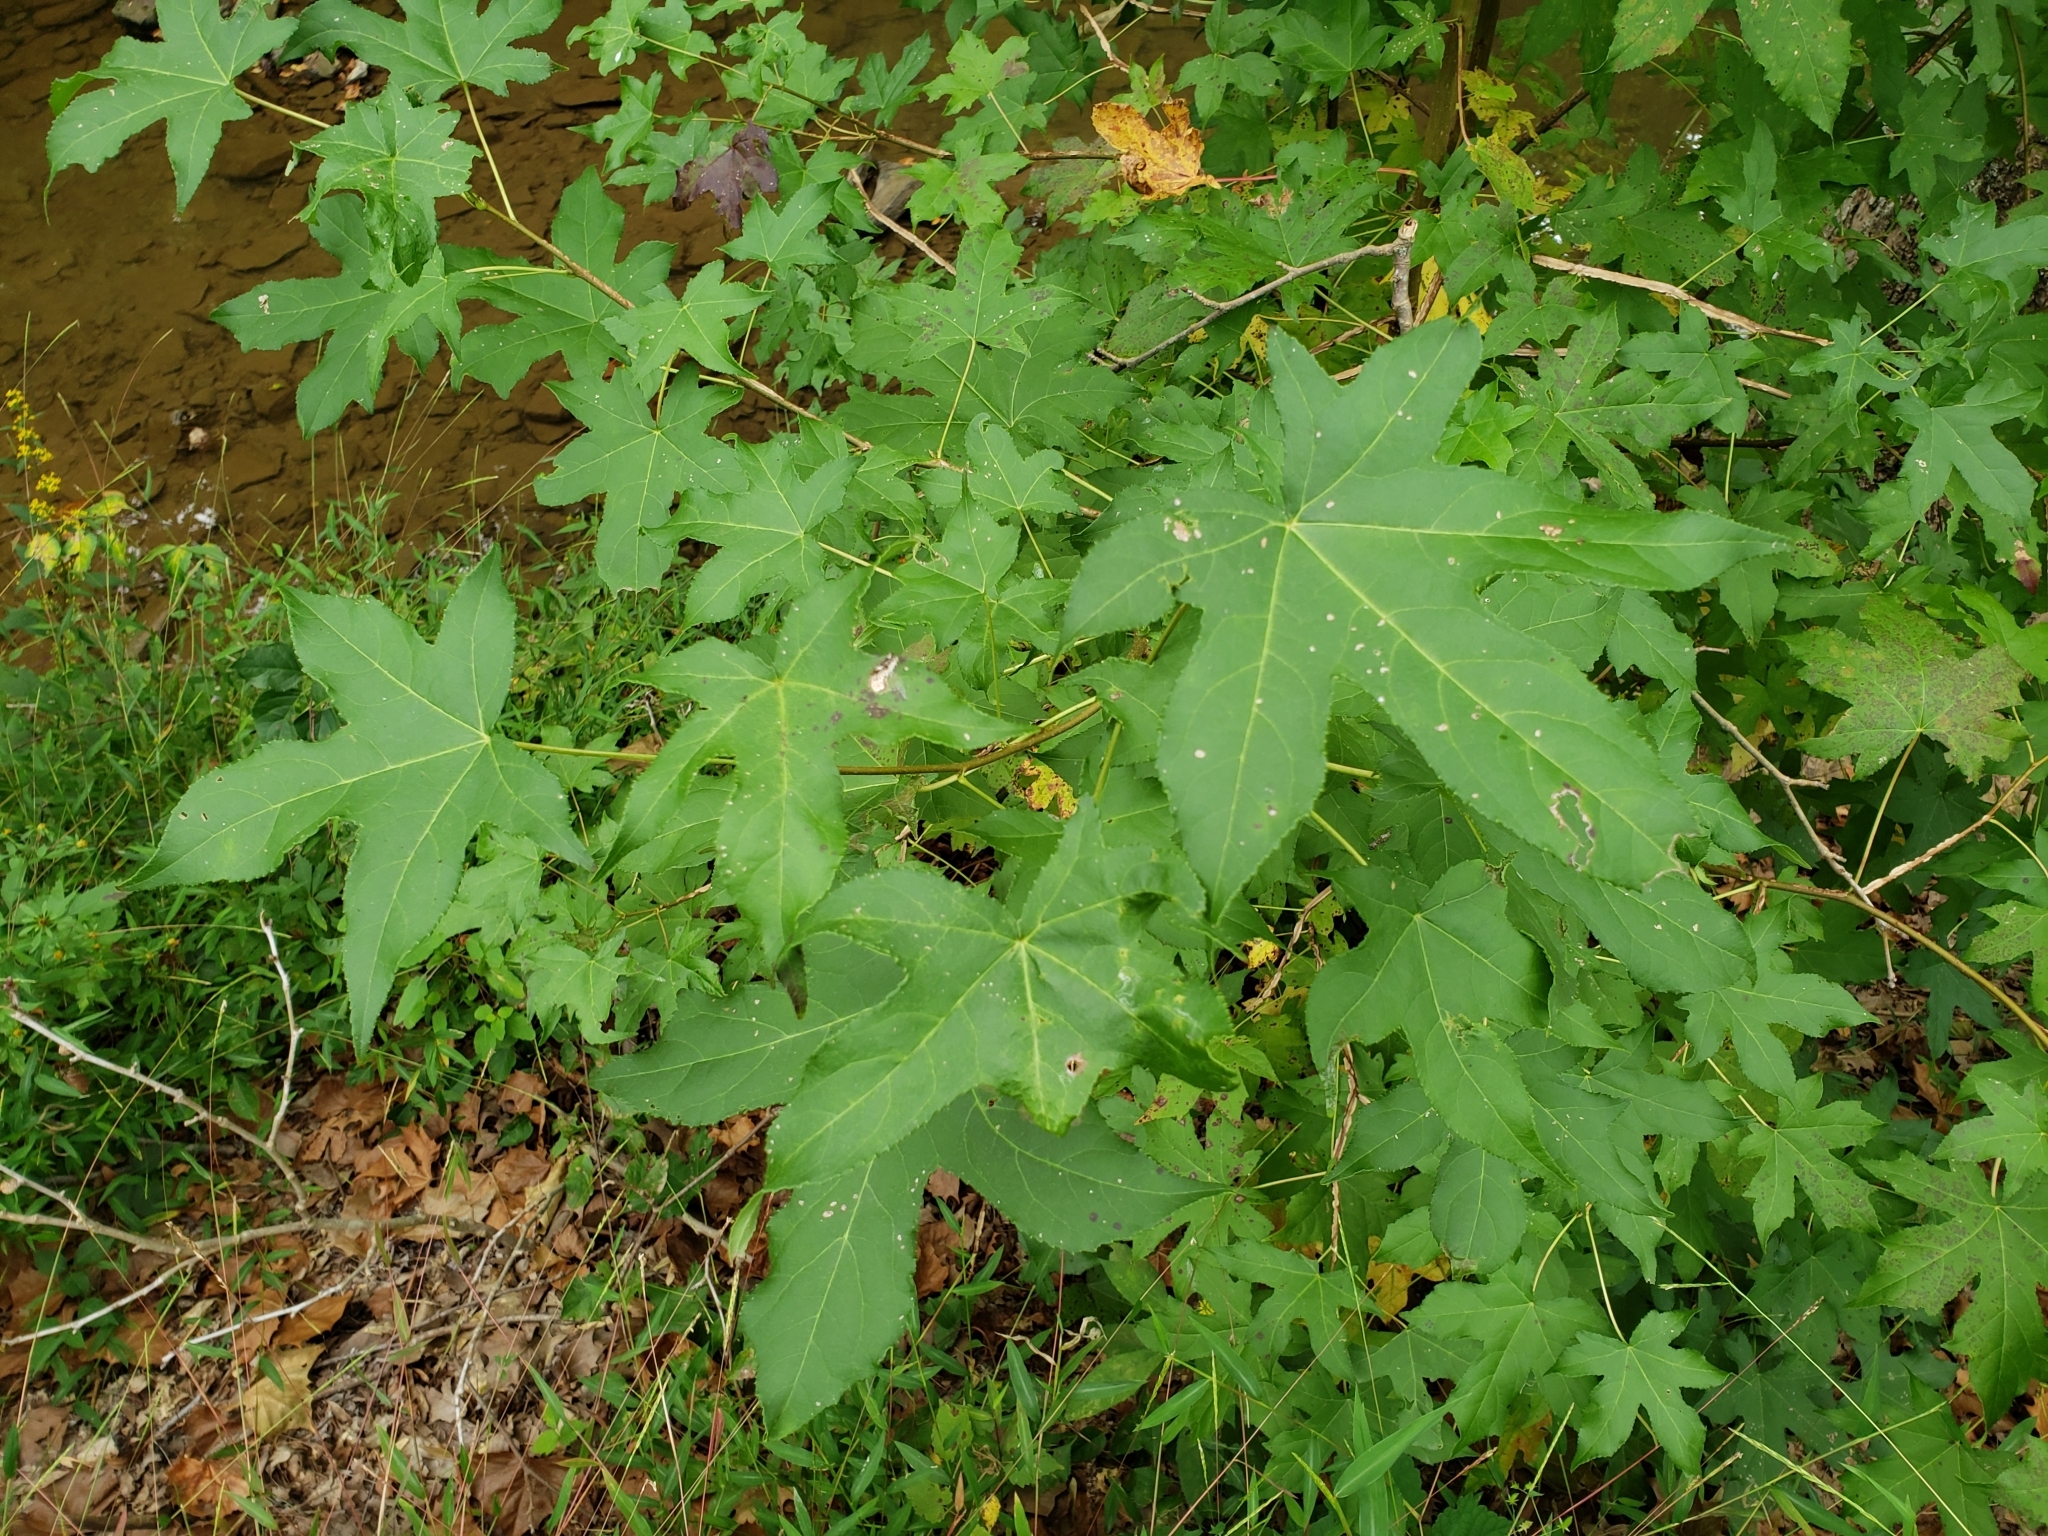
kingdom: Plantae
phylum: Tracheophyta
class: Magnoliopsida
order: Saxifragales
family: Altingiaceae
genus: Liquidambar
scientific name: Liquidambar styraciflua
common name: Sweet gum
